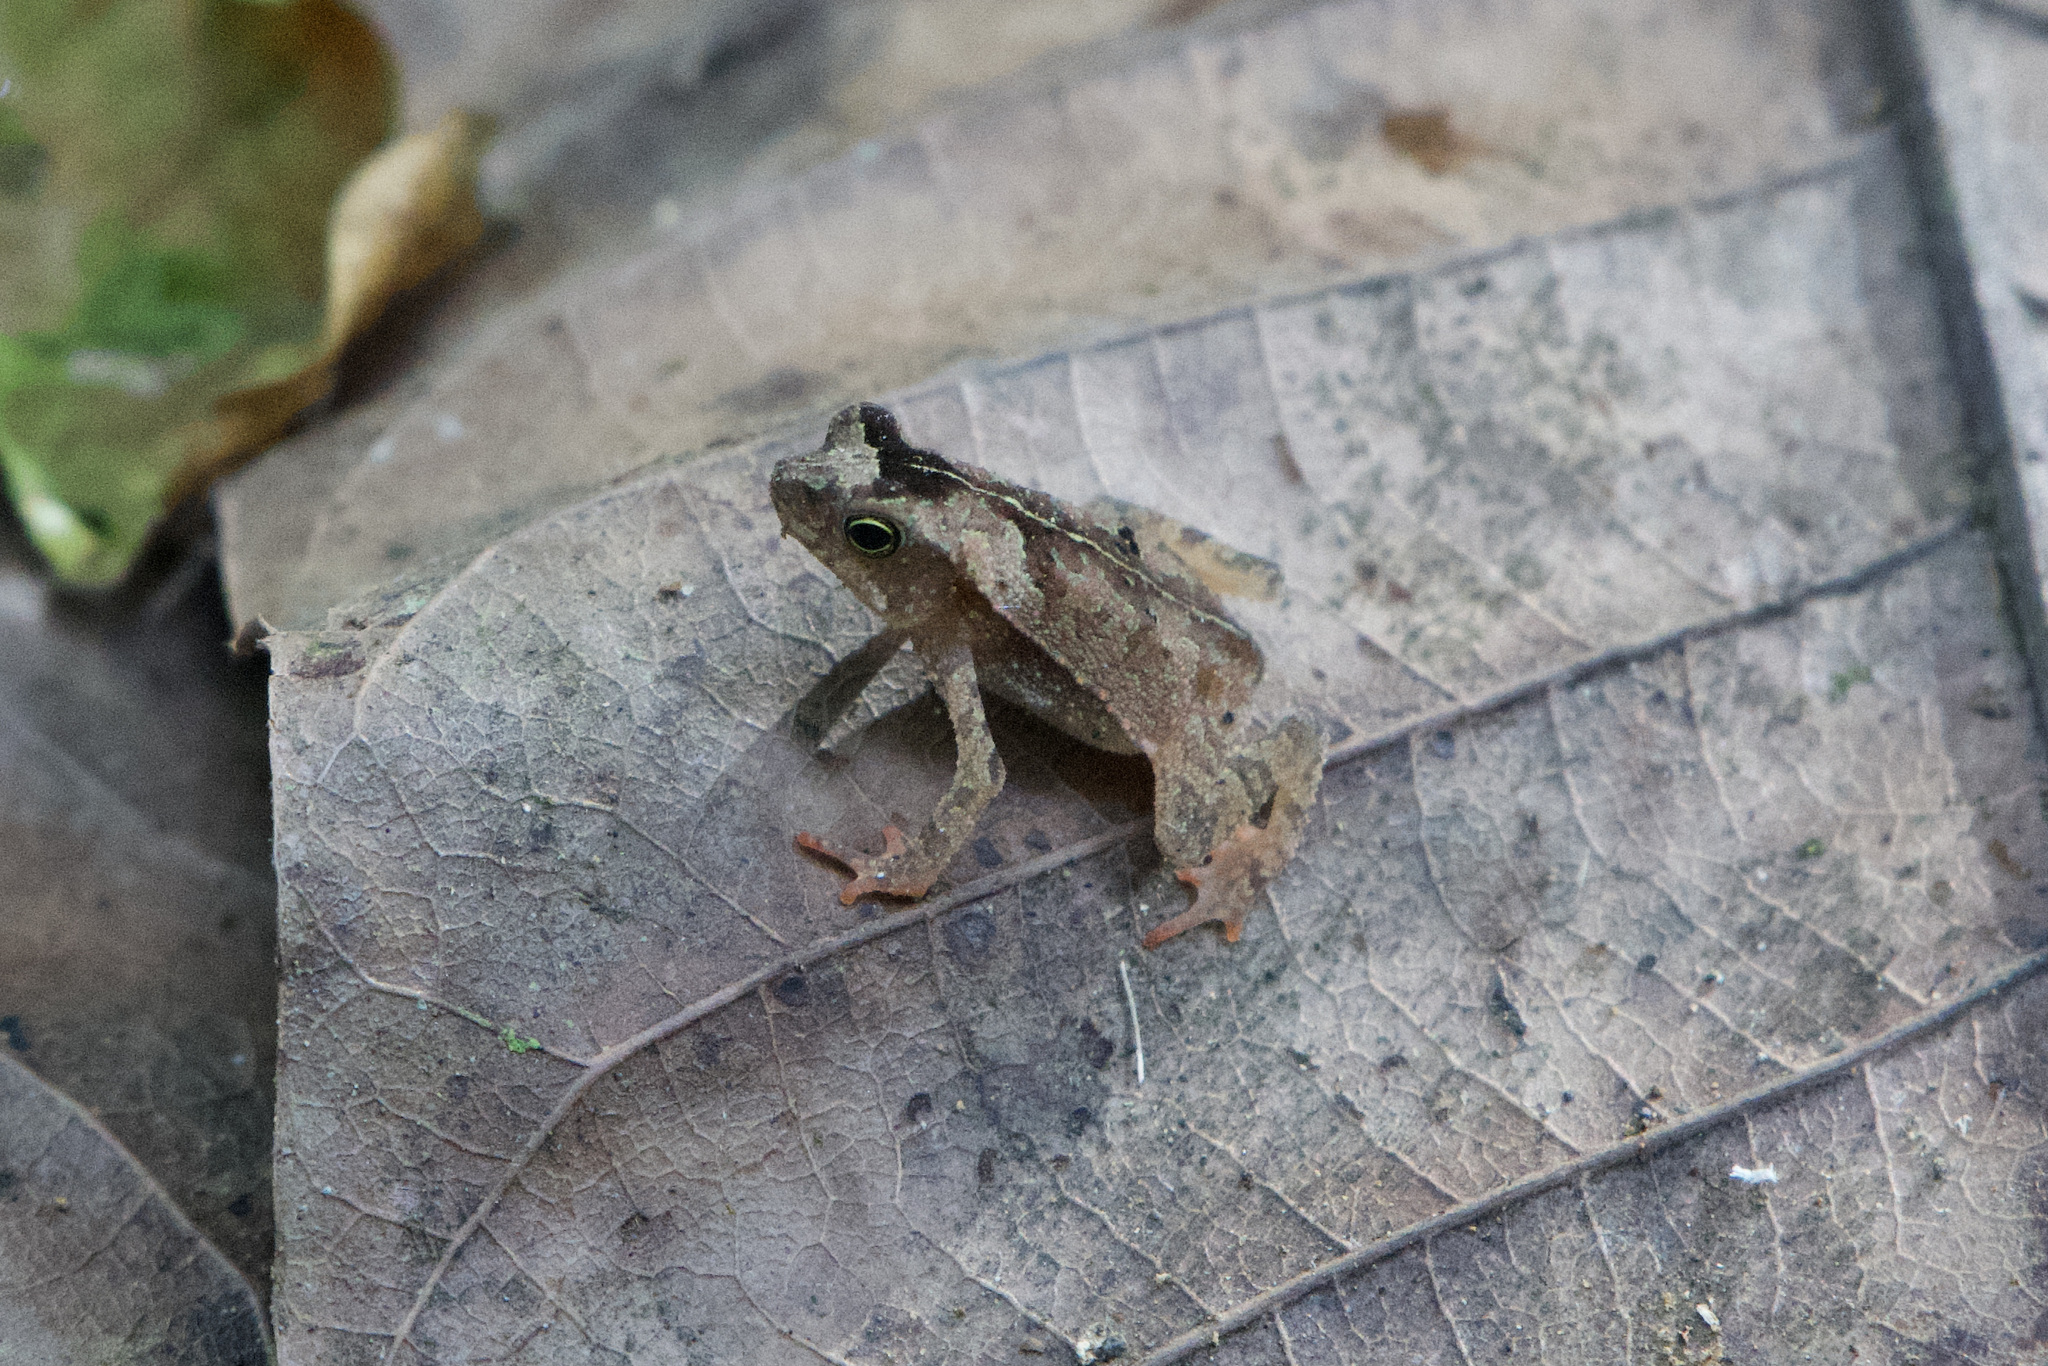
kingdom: Animalia
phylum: Chordata
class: Amphibia
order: Anura
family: Bufonidae
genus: Rhinella
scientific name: Rhinella alata
